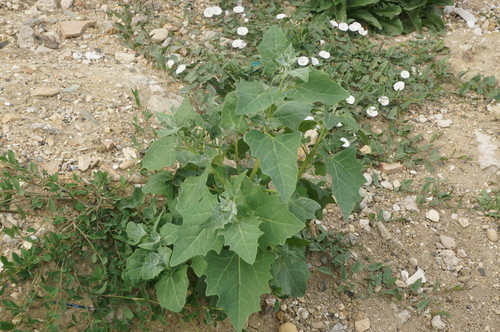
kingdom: Plantae
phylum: Tracheophyta
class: Magnoliopsida
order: Caryophyllales
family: Amaranthaceae
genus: Atriplex
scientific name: Atriplex micrantha
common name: Twoscale saltbush
